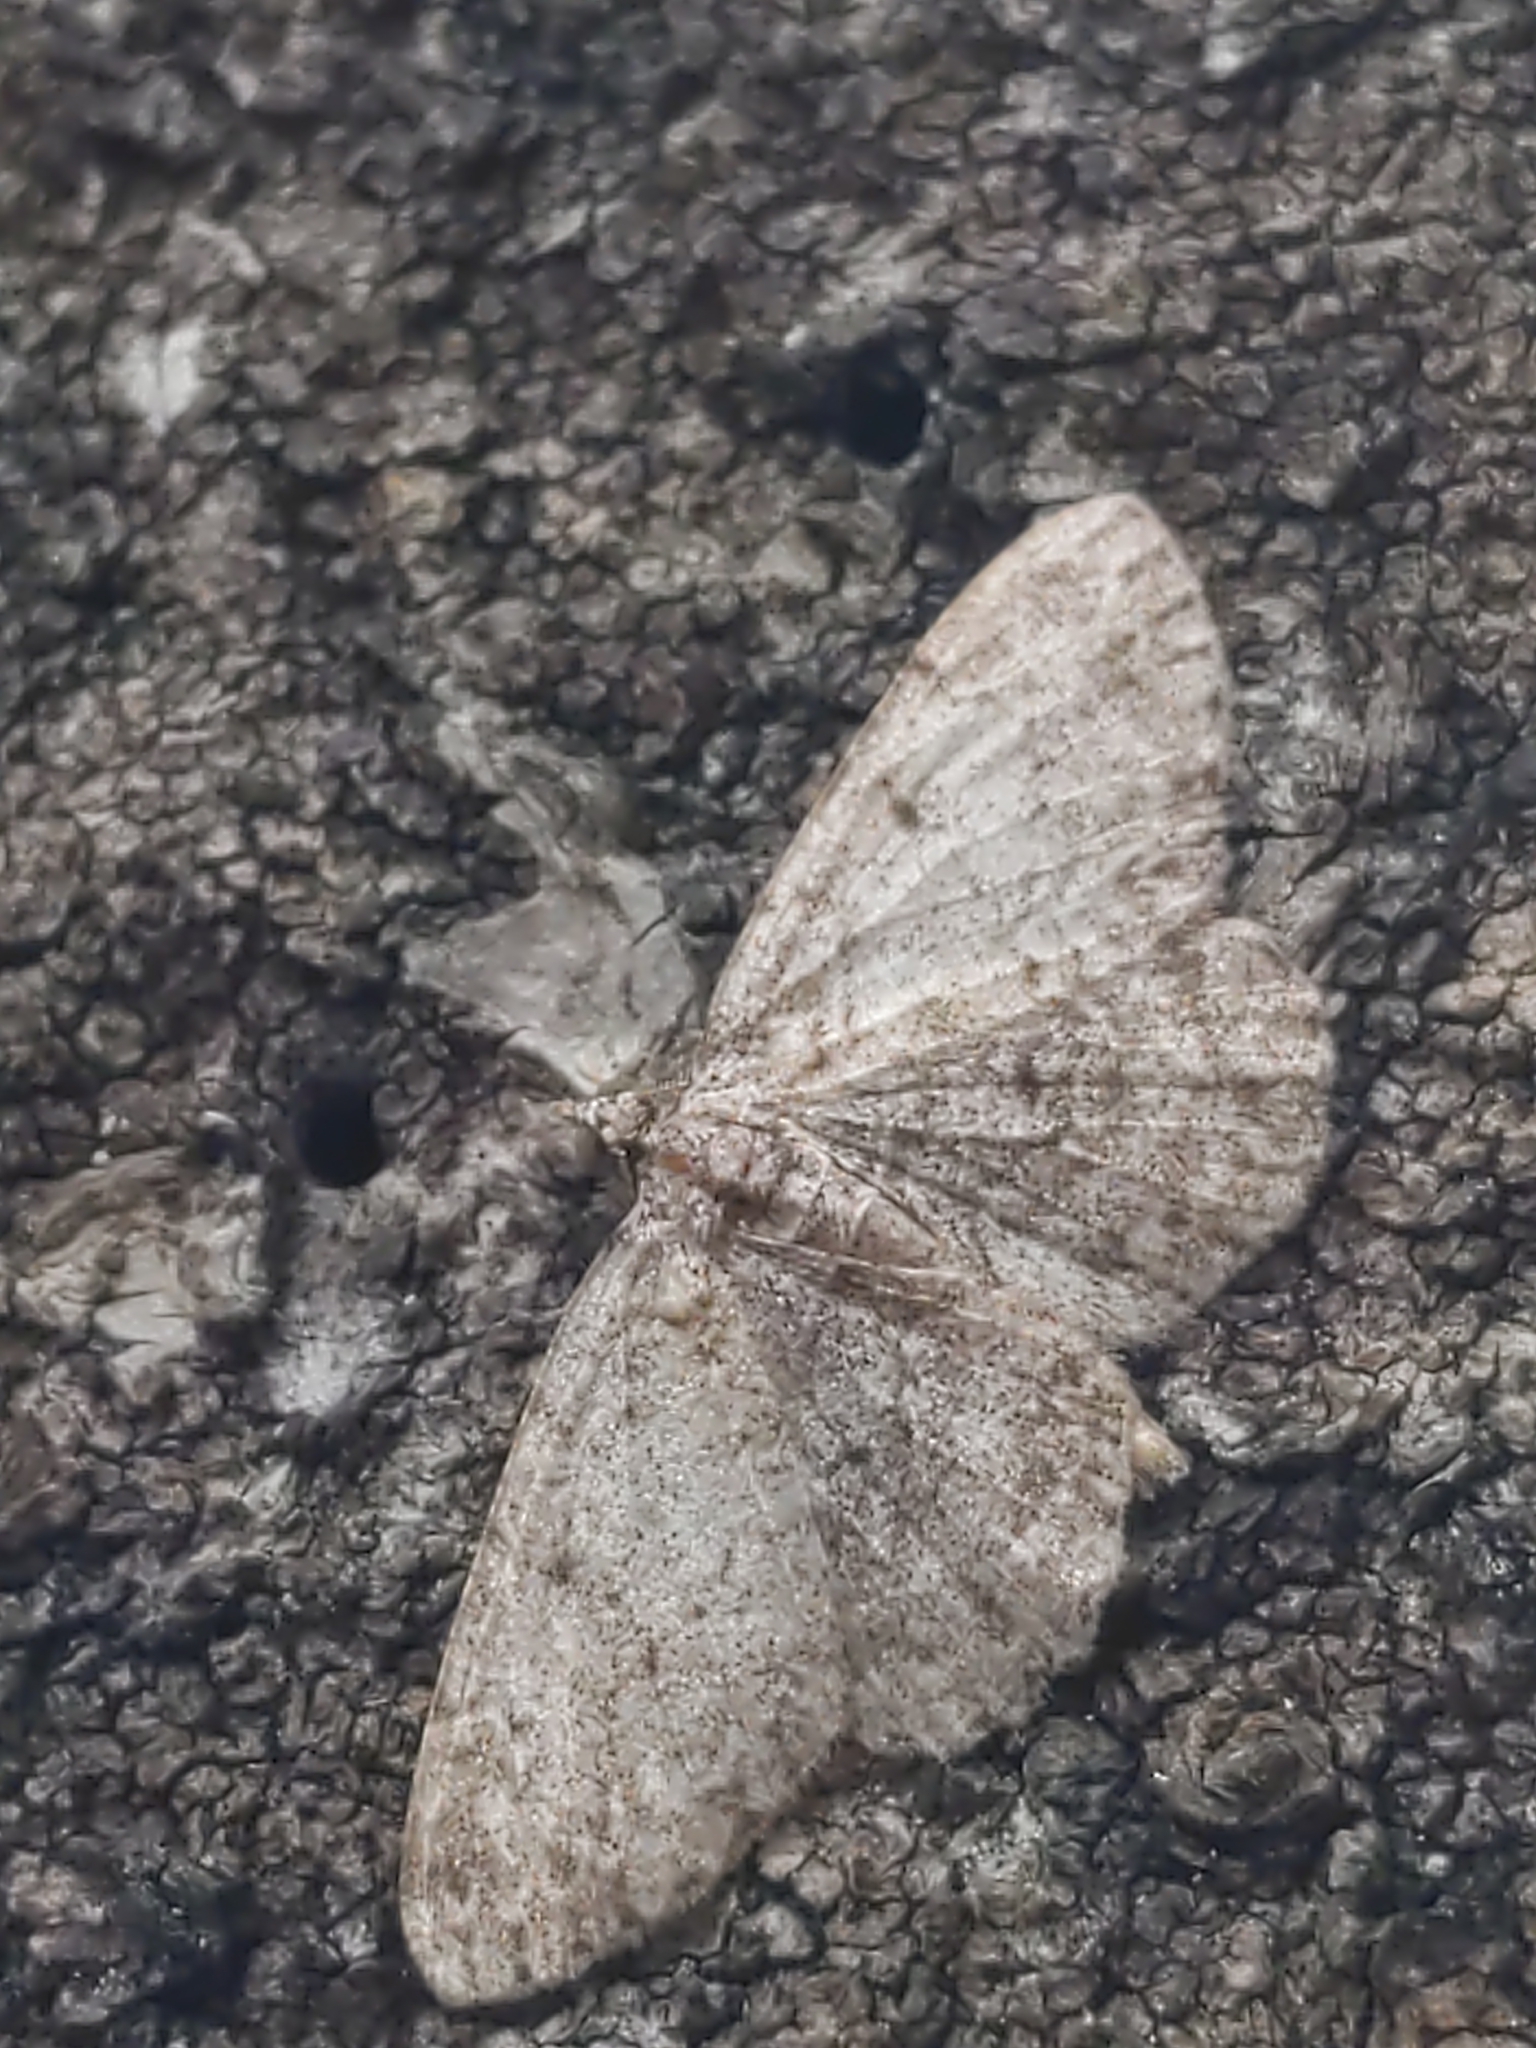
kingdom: Animalia
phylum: Arthropoda
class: Insecta
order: Lepidoptera
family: Geometridae
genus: Protoboarmia
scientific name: Protoboarmia porcelaria
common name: Porcelain gray
